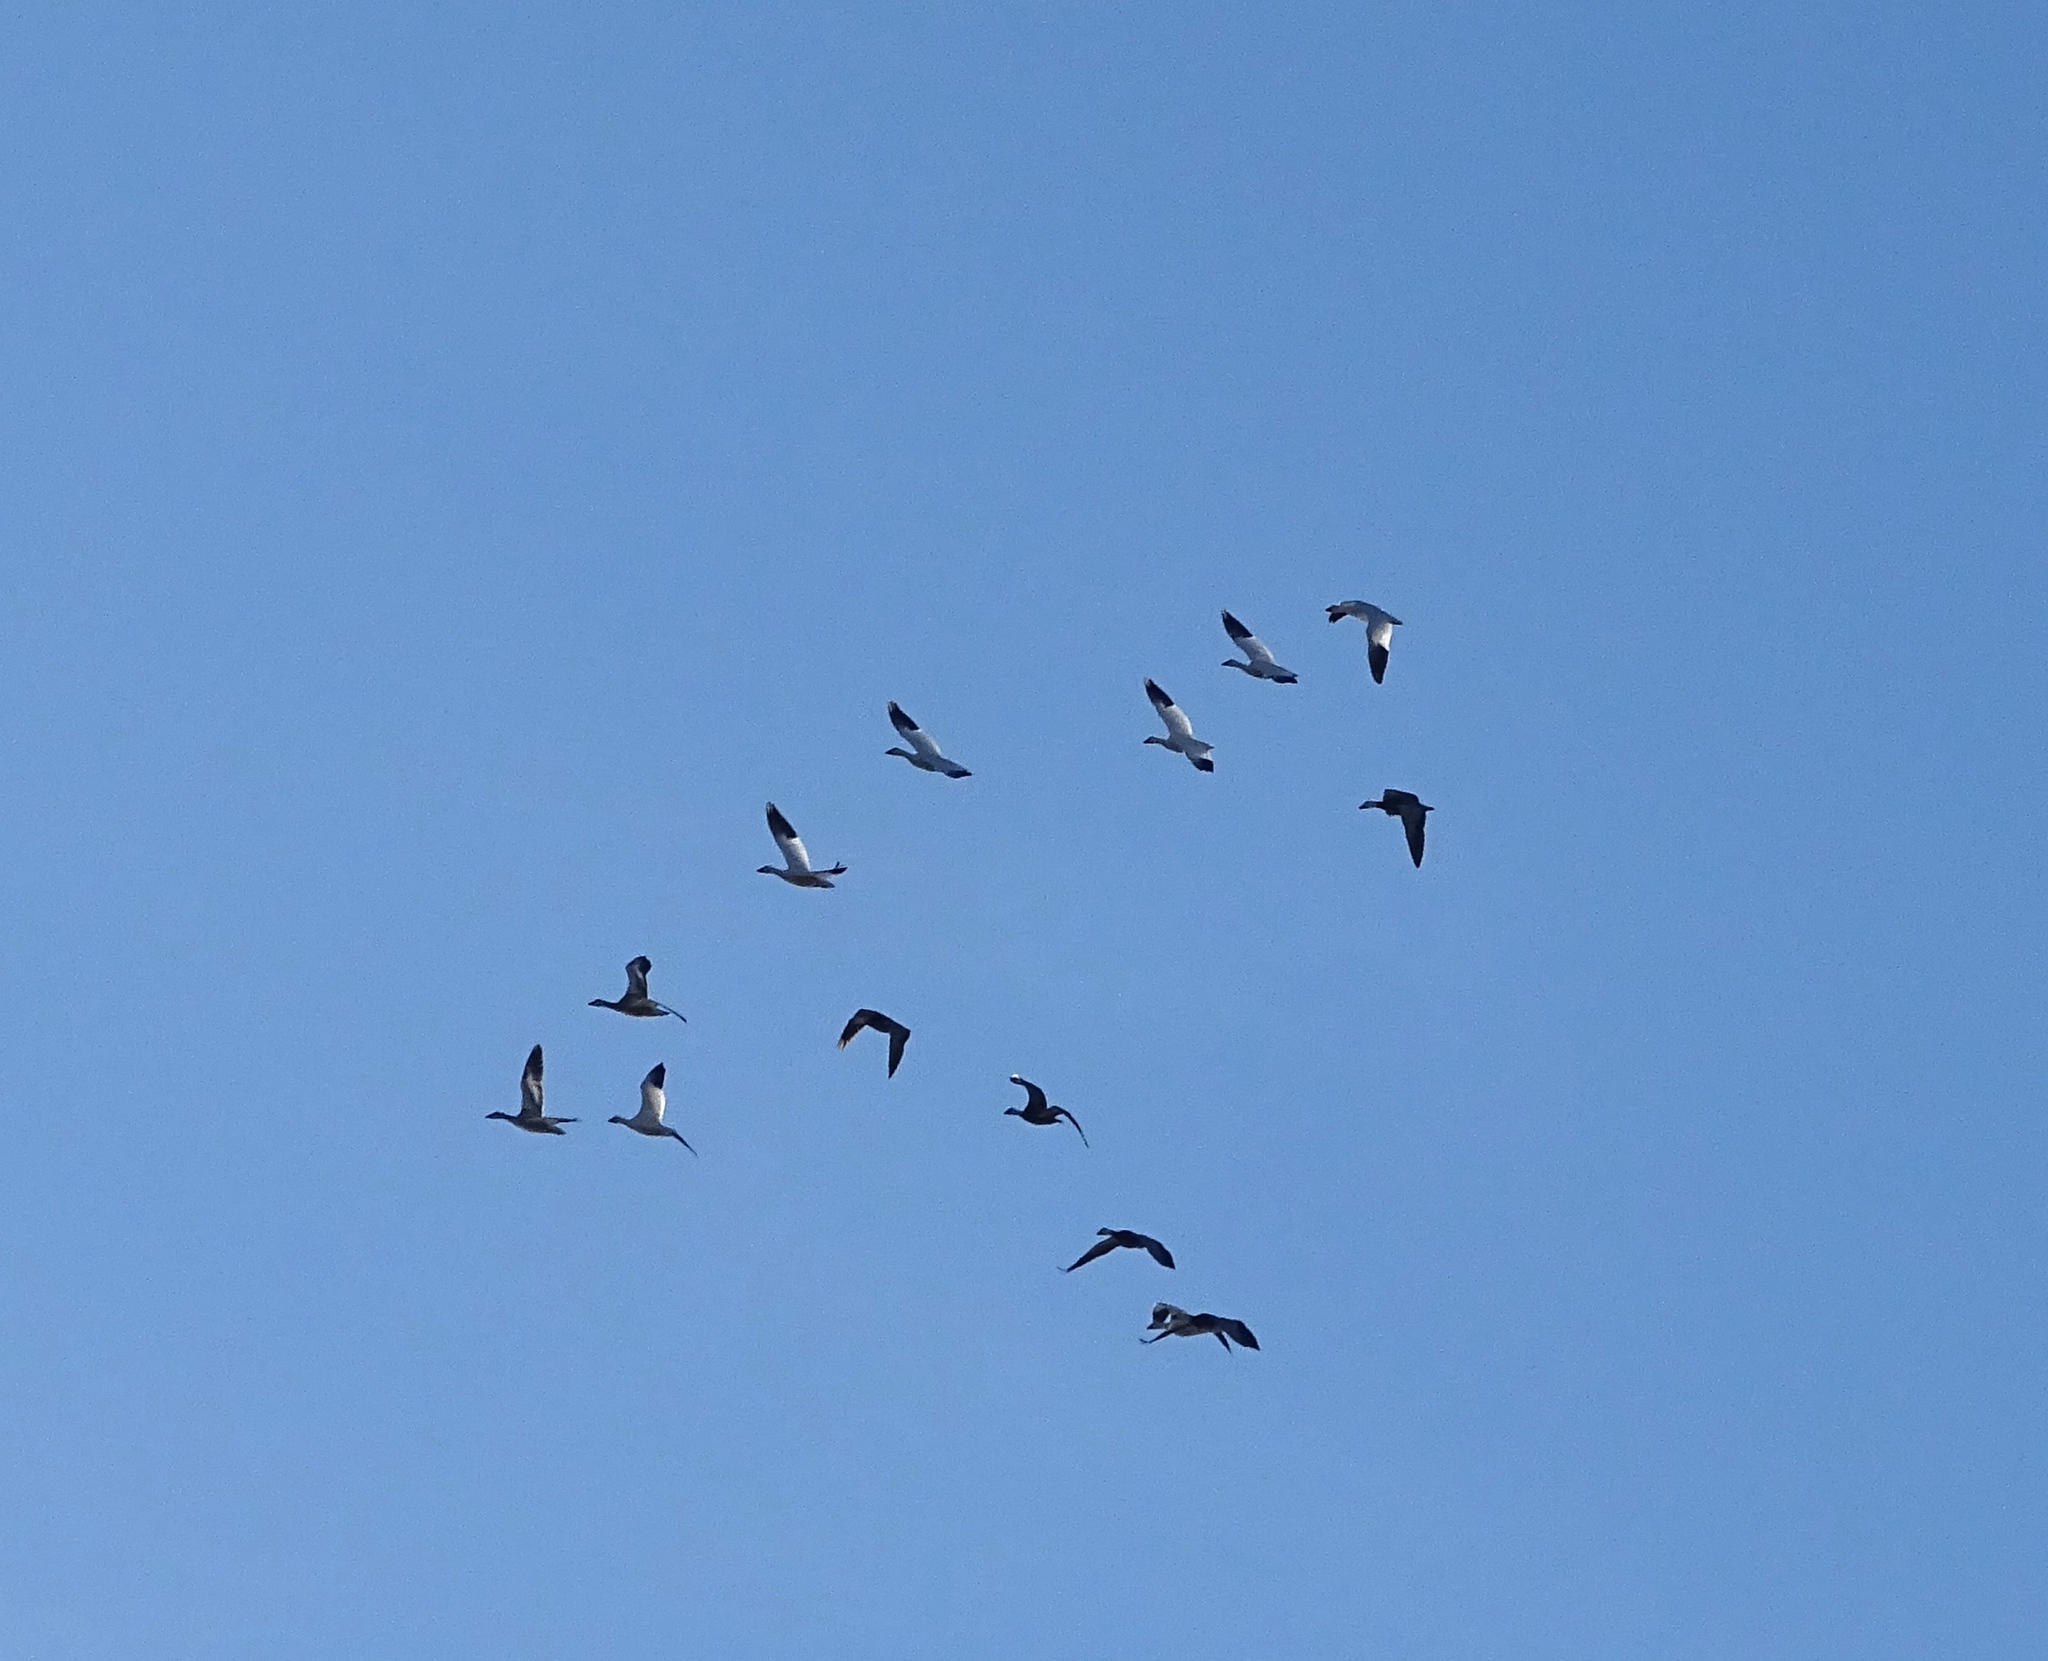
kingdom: Animalia
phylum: Chordata
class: Aves
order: Anseriformes
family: Anatidae
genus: Anser
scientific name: Anser caerulescens
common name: Snow goose
